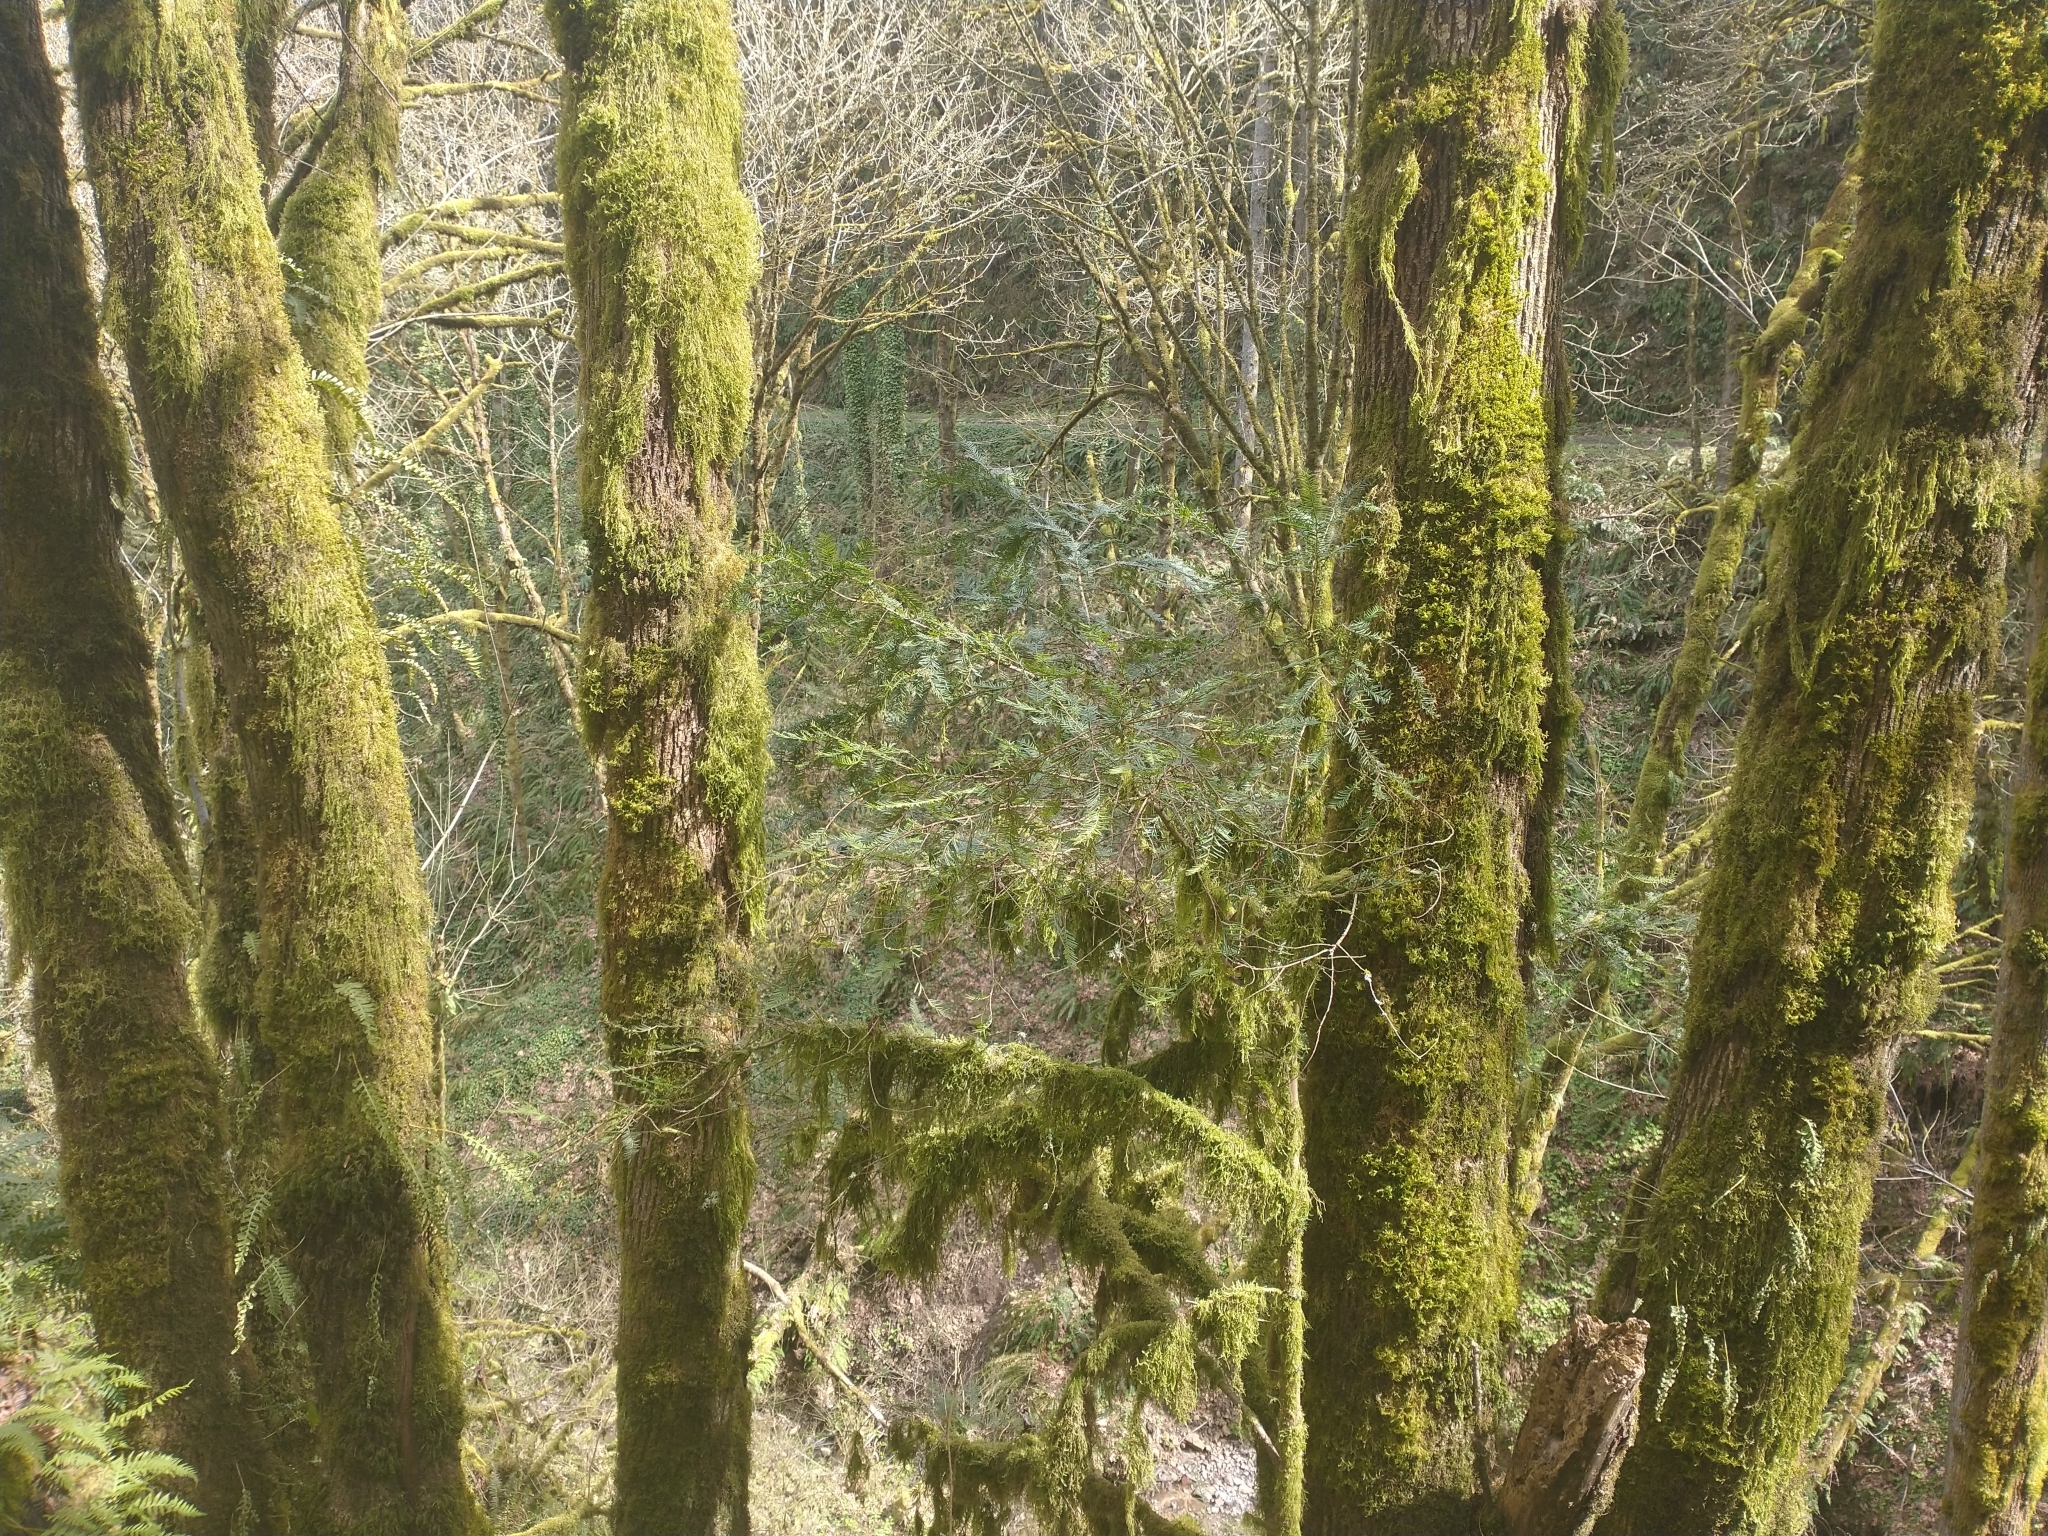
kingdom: Plantae
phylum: Tracheophyta
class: Pinopsida
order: Pinales
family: Taxaceae
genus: Taxus
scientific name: Taxus brevifolia
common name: Pacific yew
